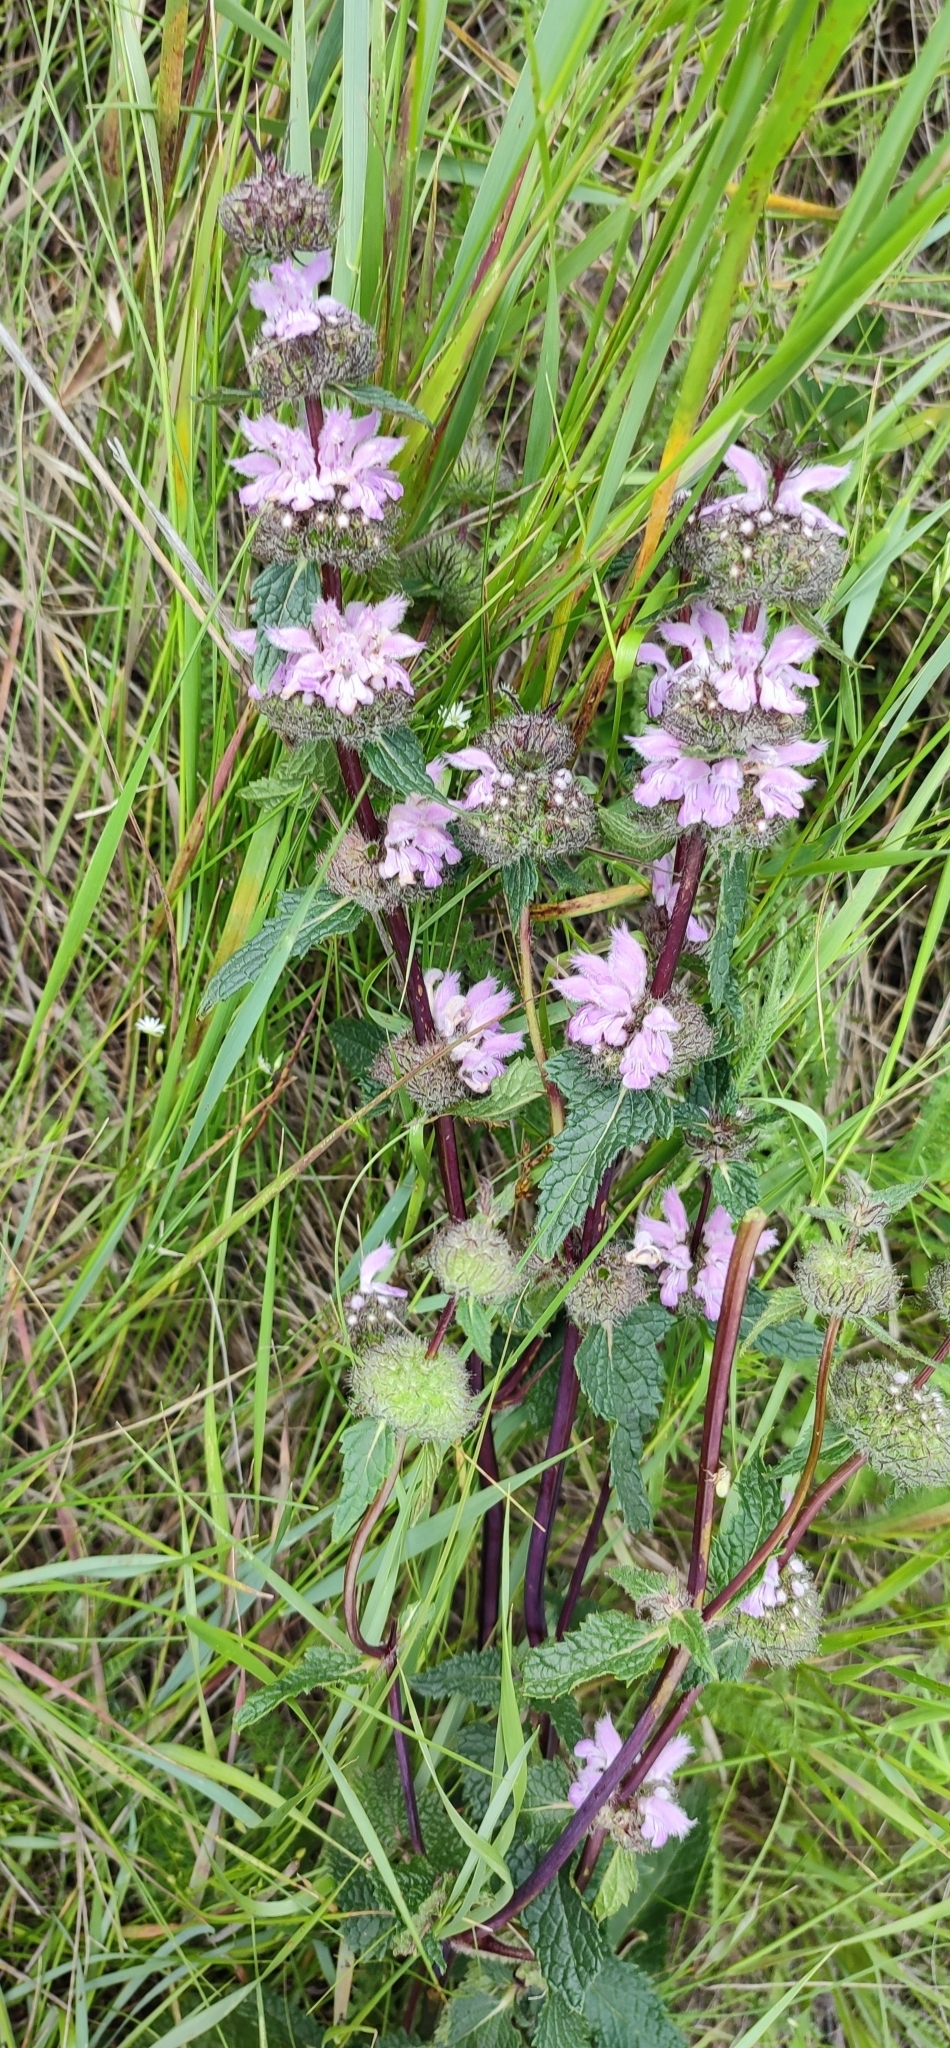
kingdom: Plantae
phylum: Tracheophyta
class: Magnoliopsida
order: Lamiales
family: Lamiaceae
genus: Phlomoides
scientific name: Phlomoides tuberosa
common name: Tuberous jerusalem sage
